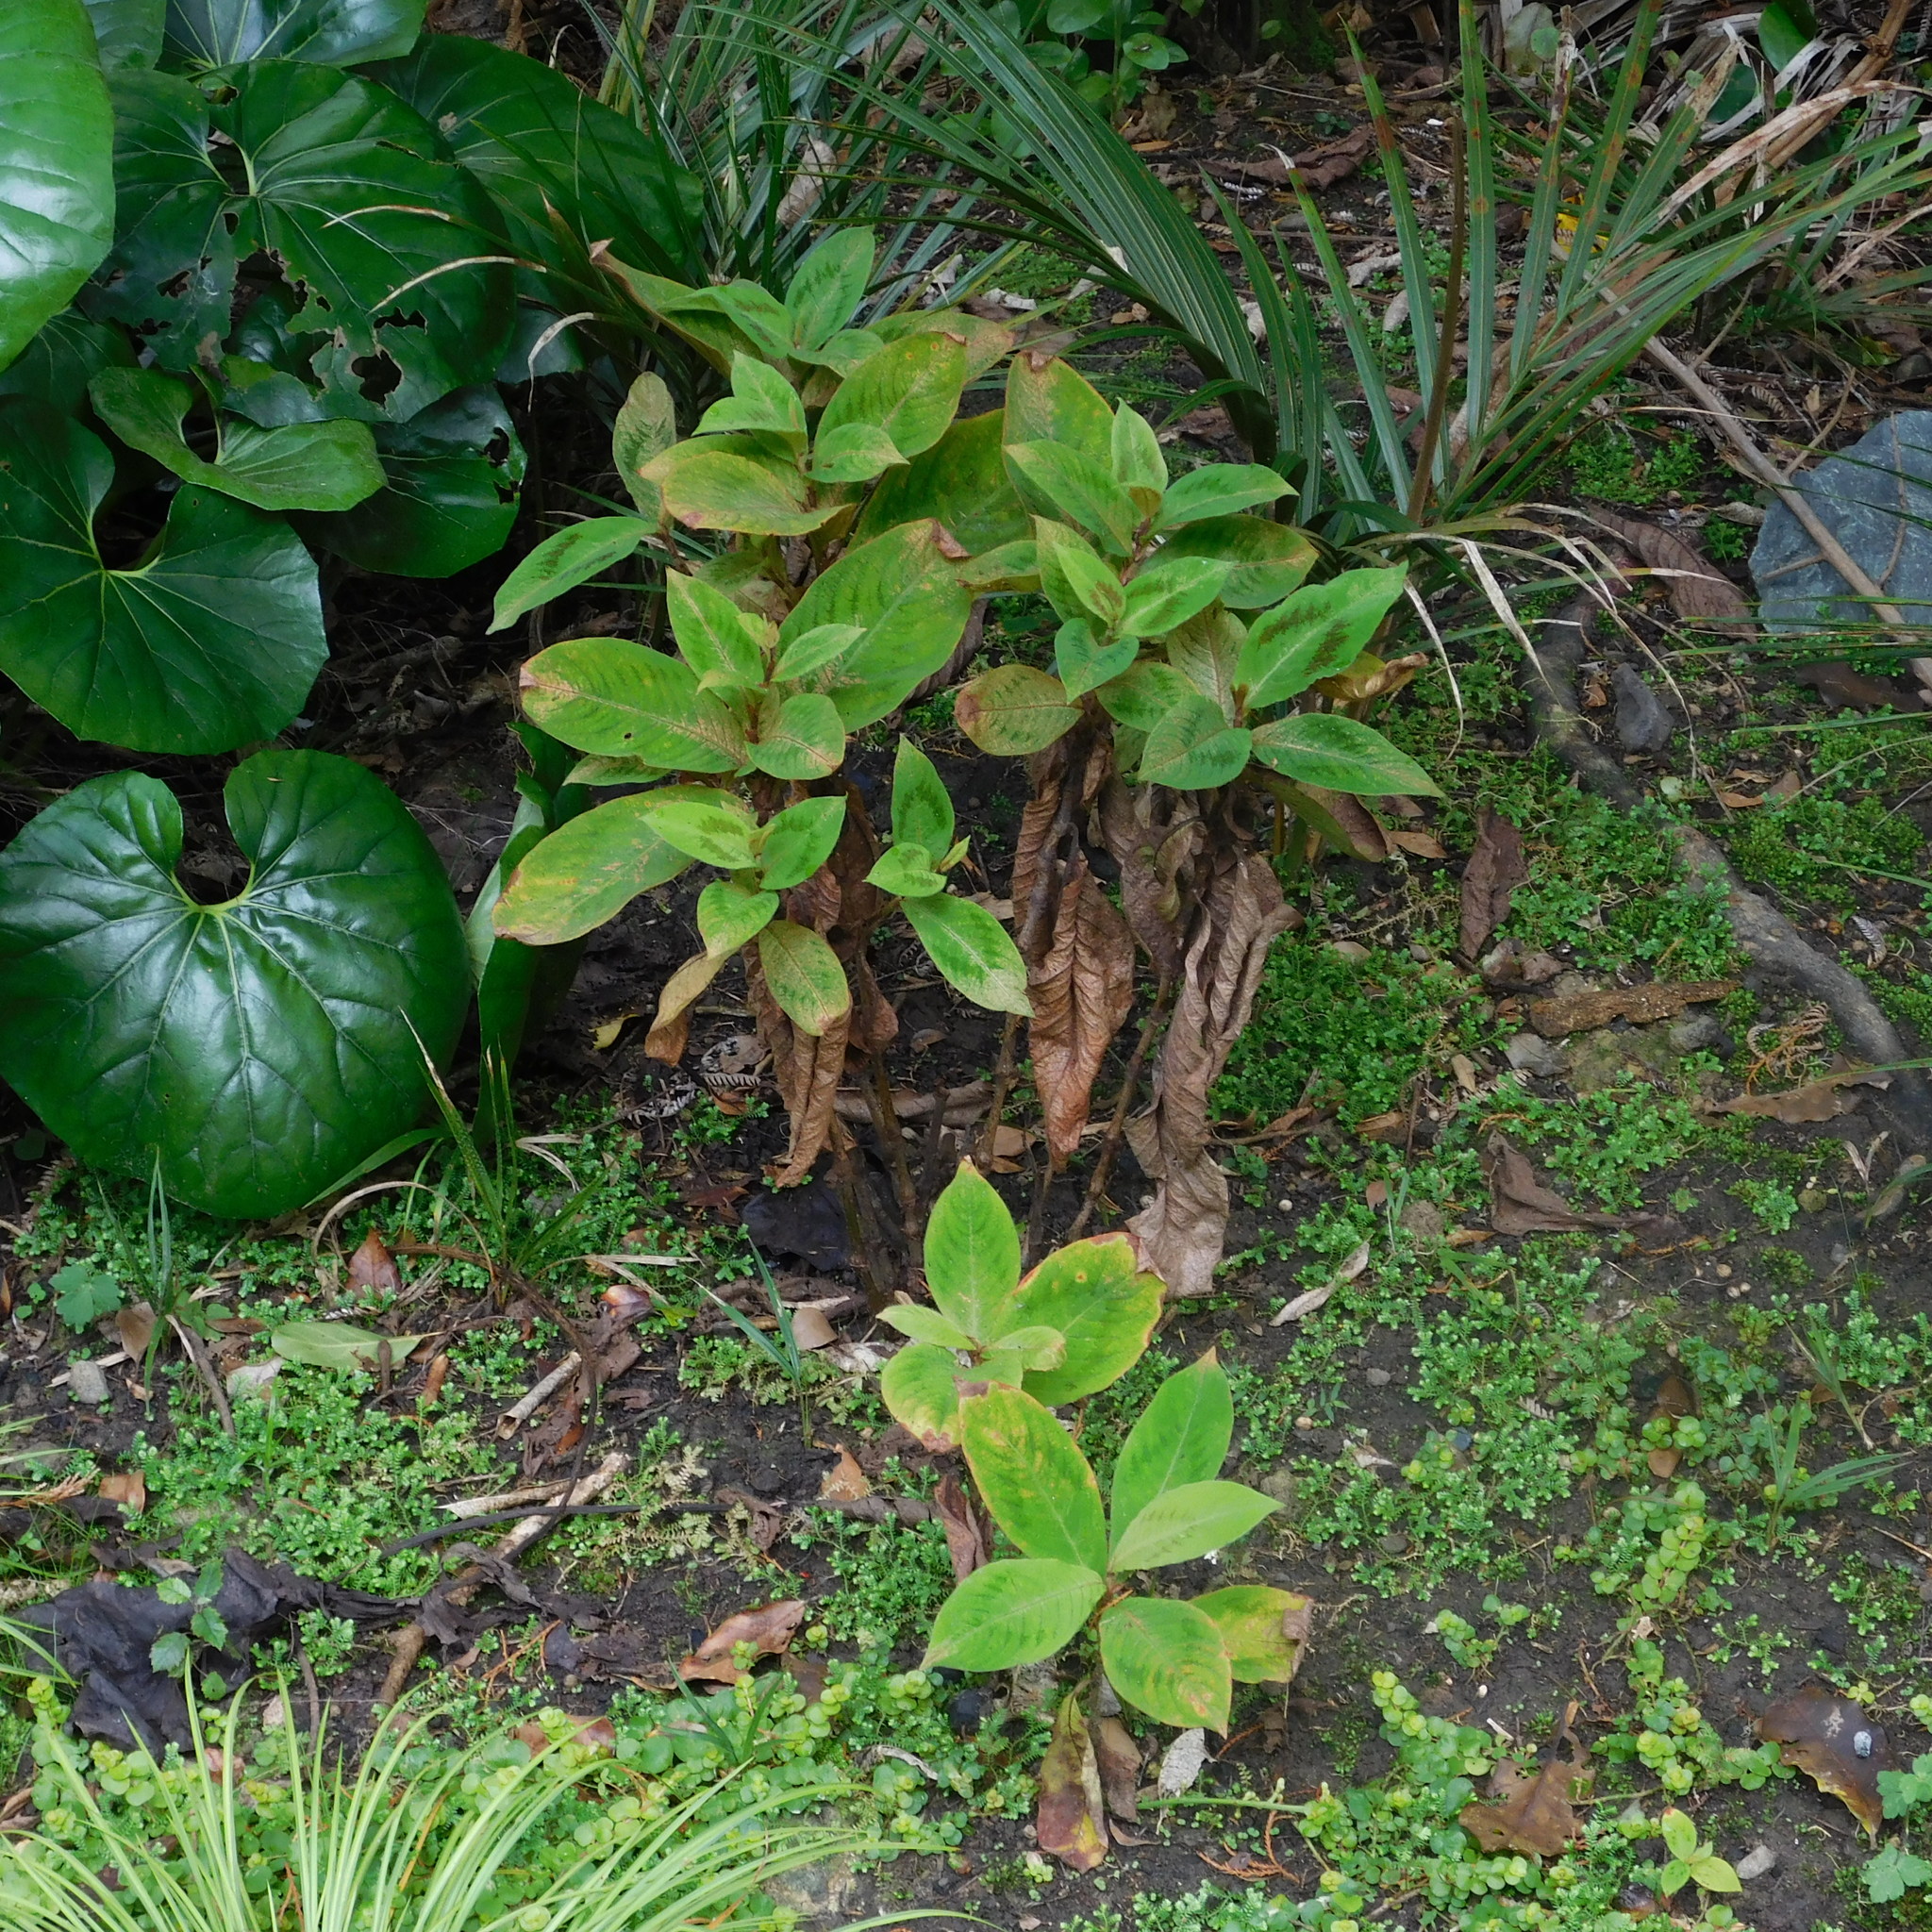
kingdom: Plantae
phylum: Tracheophyta
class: Magnoliopsida
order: Caryophyllales
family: Polygonaceae
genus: Persicaria
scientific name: Persicaria filiformis
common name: Asian jumpseed
